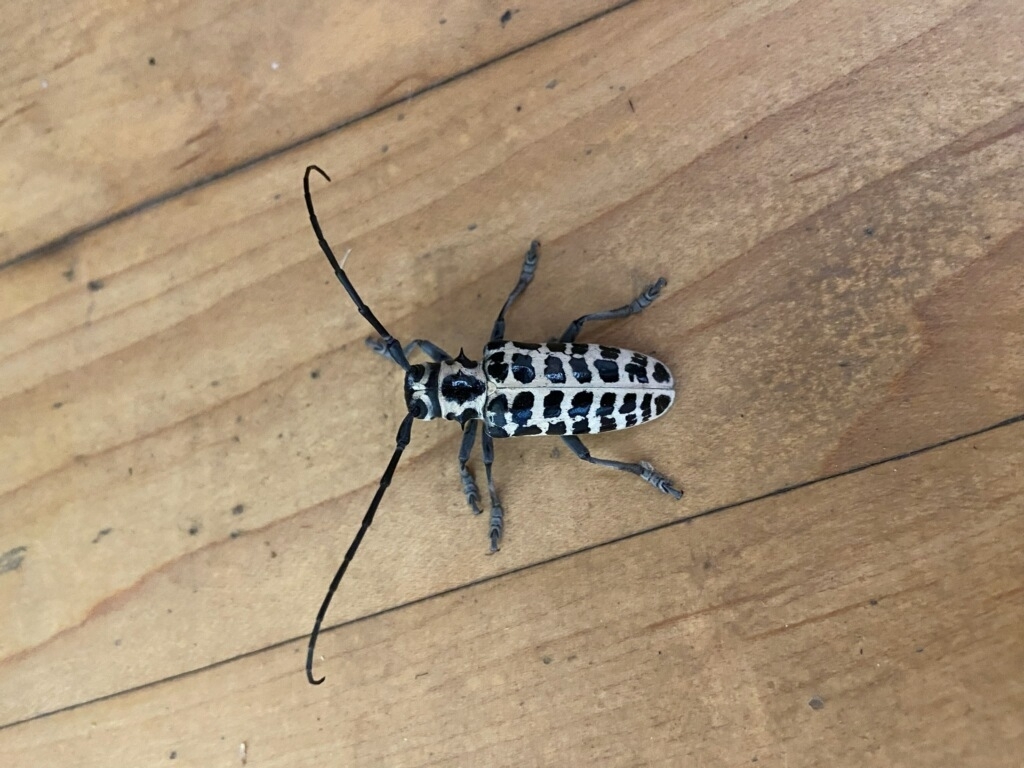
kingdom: Animalia
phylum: Arthropoda
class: Insecta
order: Coleoptera
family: Cerambycidae
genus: Plectrodera
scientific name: Plectrodera scalator
